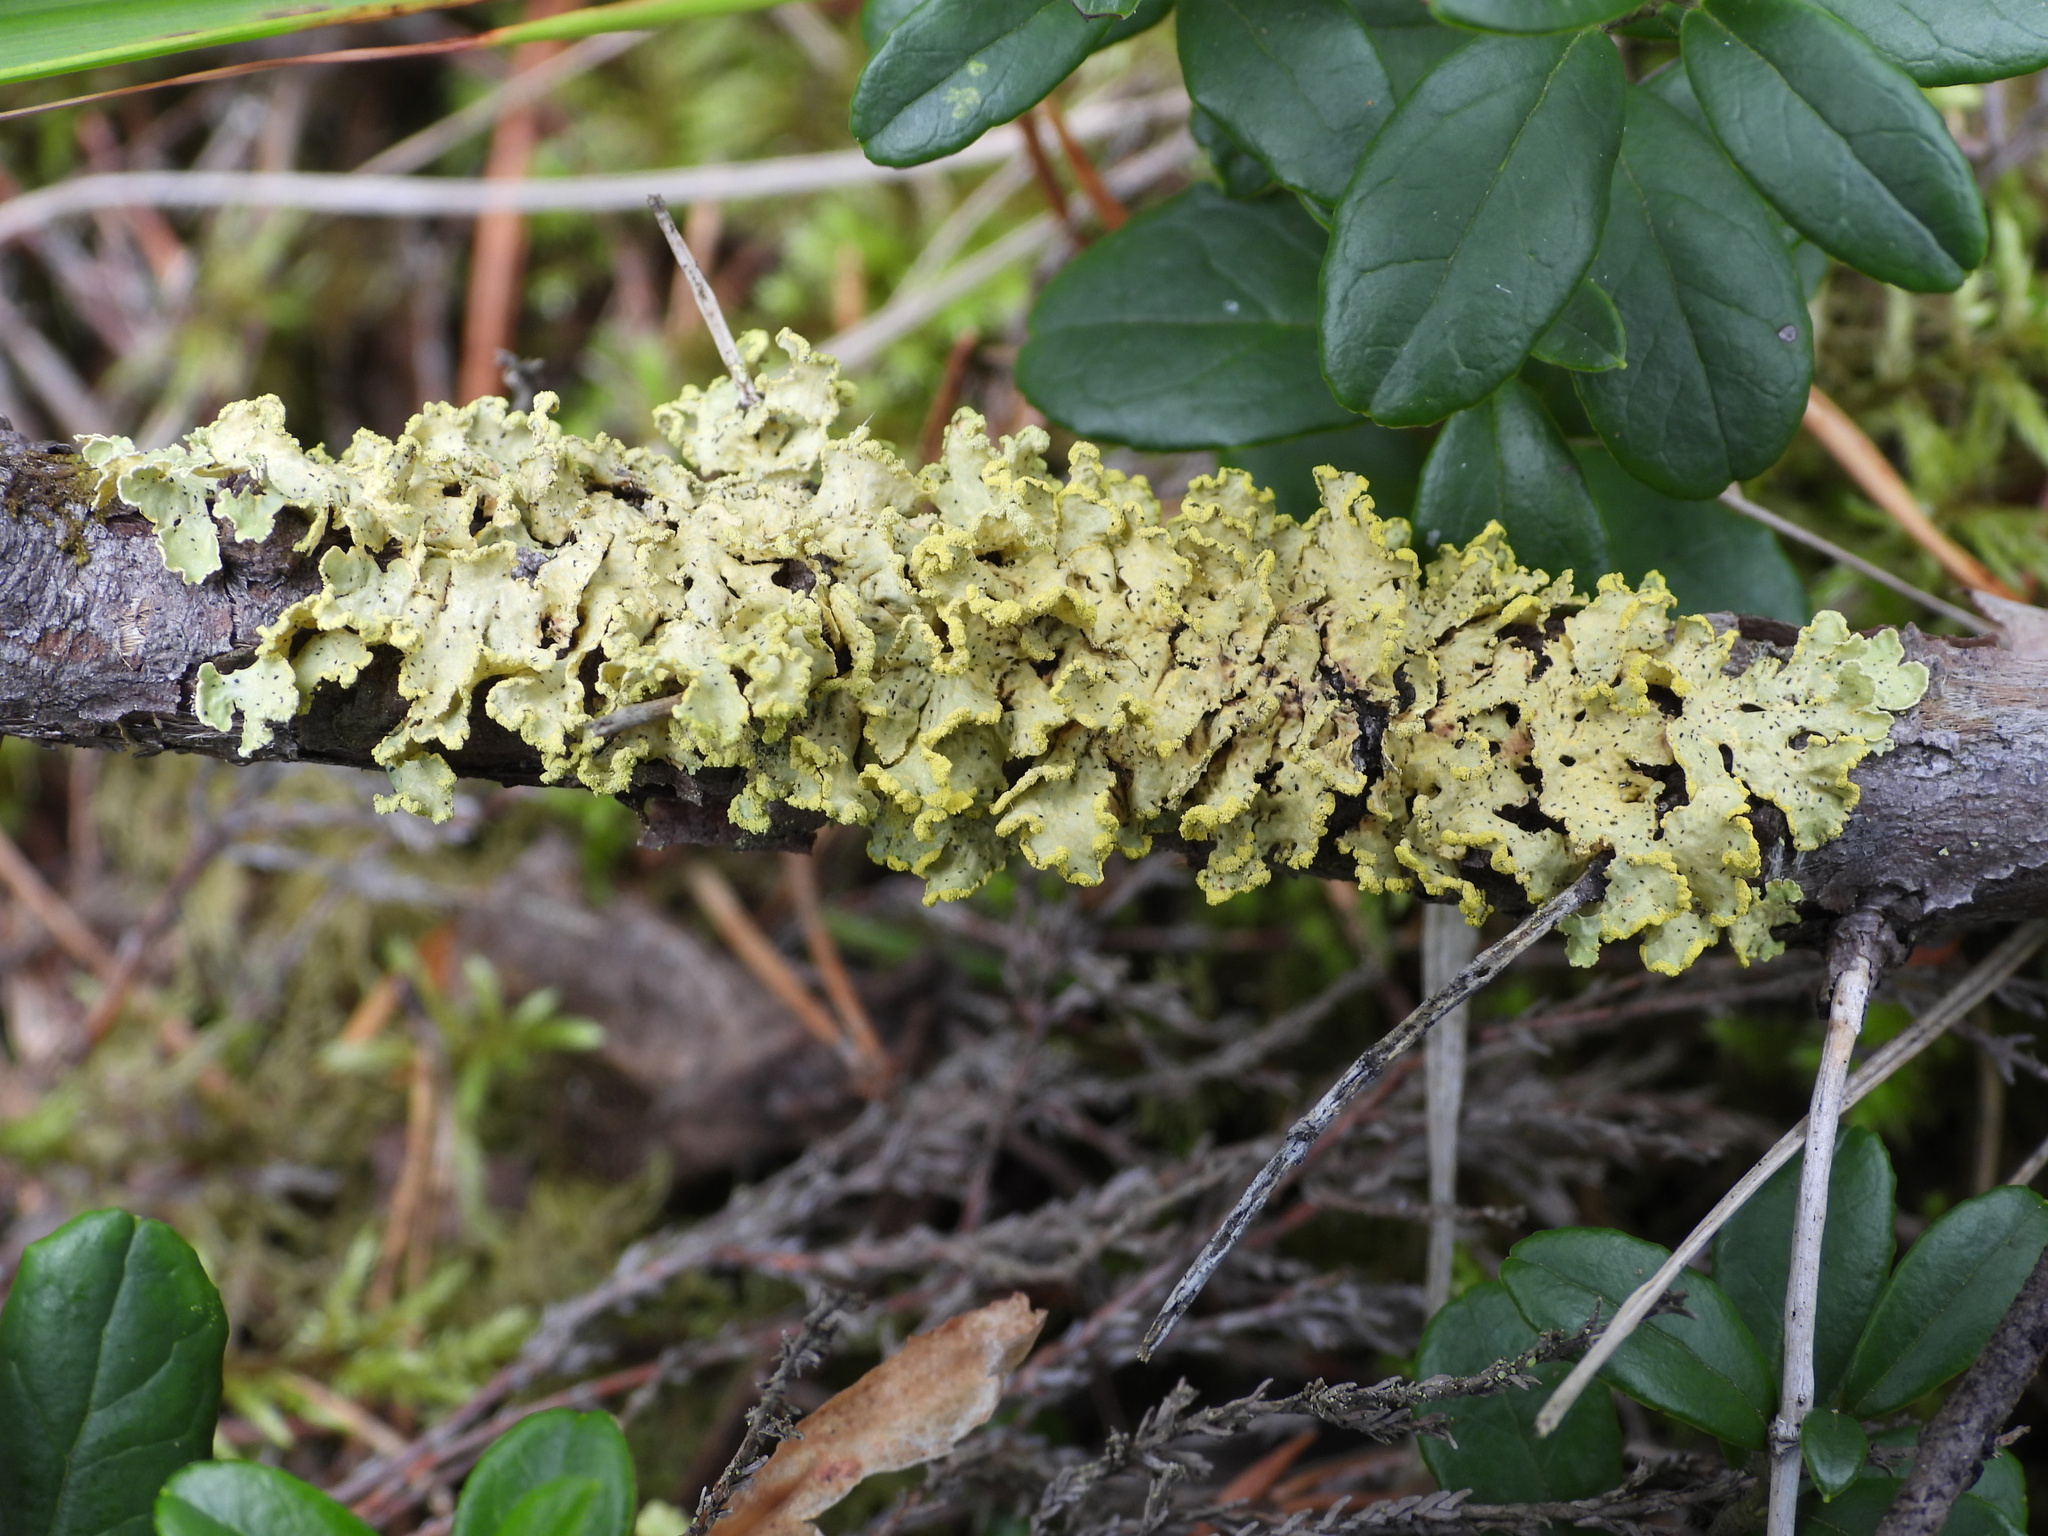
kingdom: Fungi
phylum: Ascomycota
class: Lecanoromycetes
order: Lecanorales
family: Parmeliaceae
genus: Vulpicida
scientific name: Vulpicida pinastri
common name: Powdered sunshine lichen
